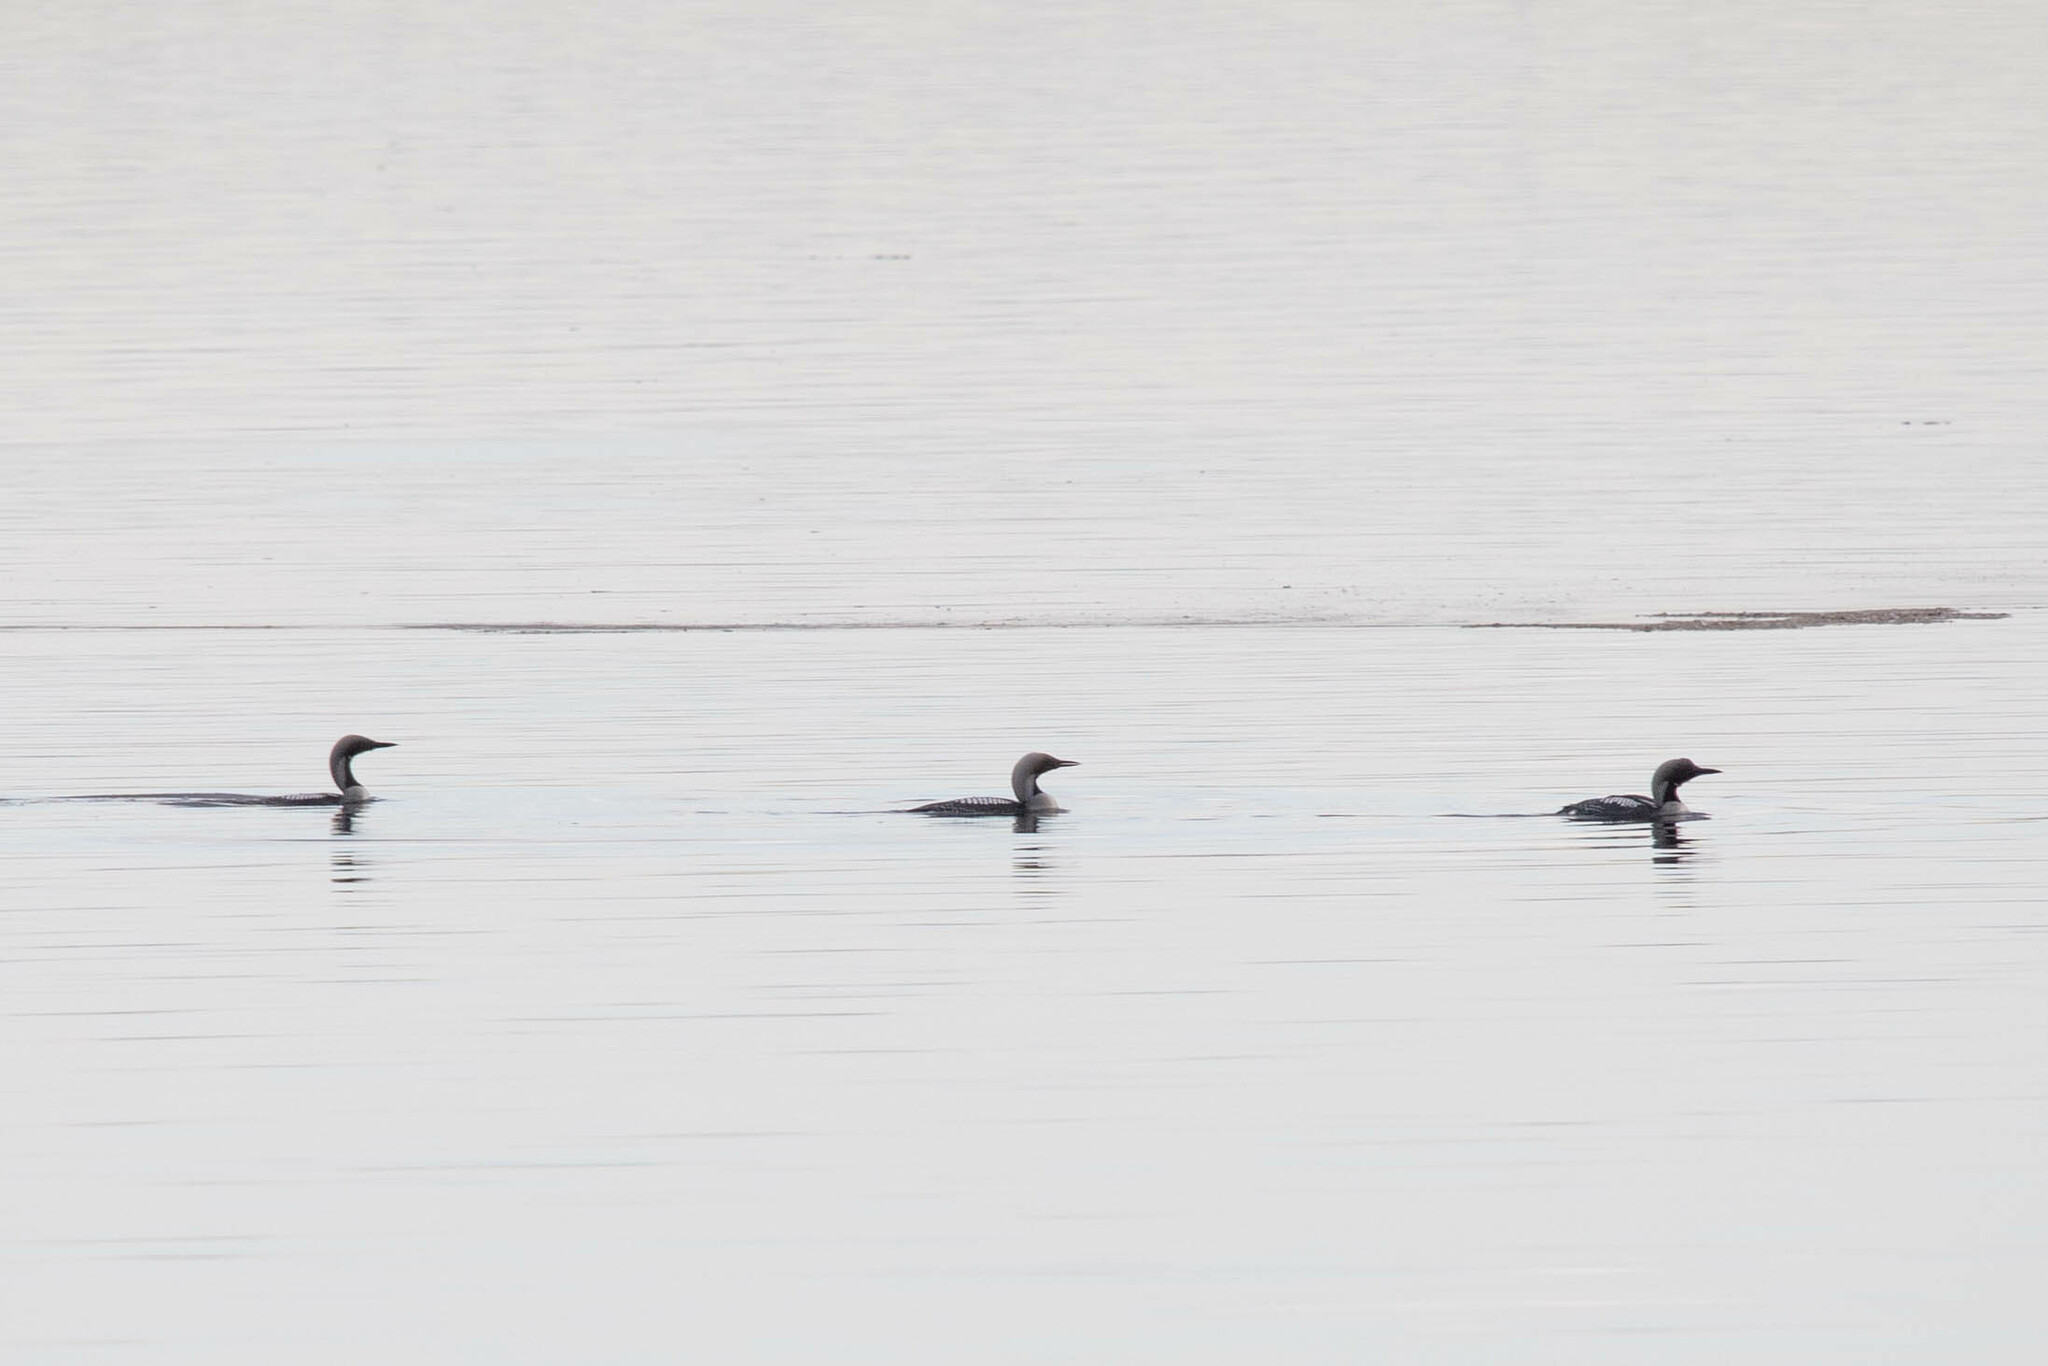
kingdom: Animalia
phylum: Chordata
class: Aves
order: Gaviiformes
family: Gaviidae
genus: Gavia
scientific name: Gavia arctica
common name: Black-throated loon
